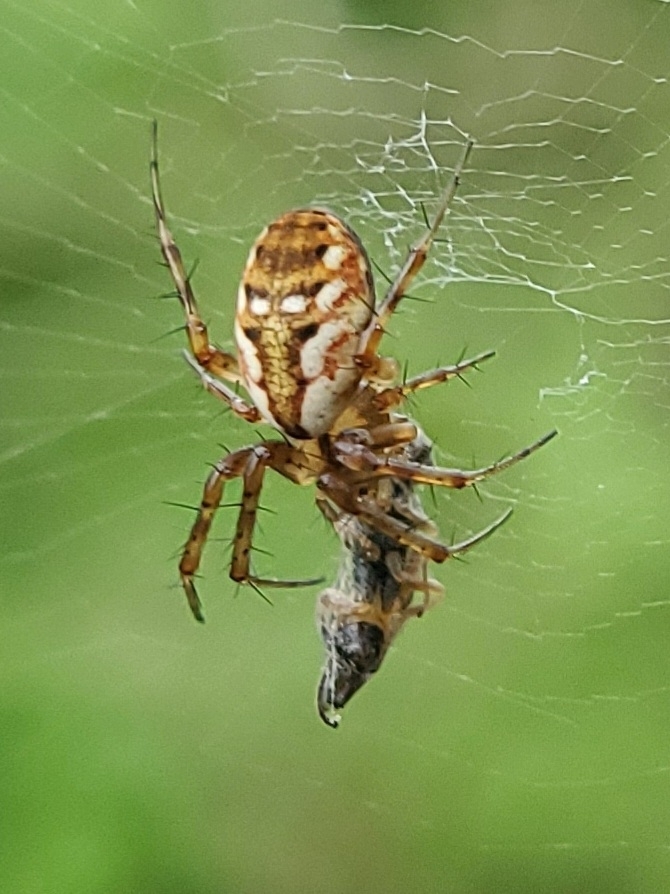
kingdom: Animalia
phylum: Arthropoda
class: Arachnida
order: Araneae
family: Araneidae
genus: Mangora
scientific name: Mangora placida
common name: Tuft-legged orbweaver
